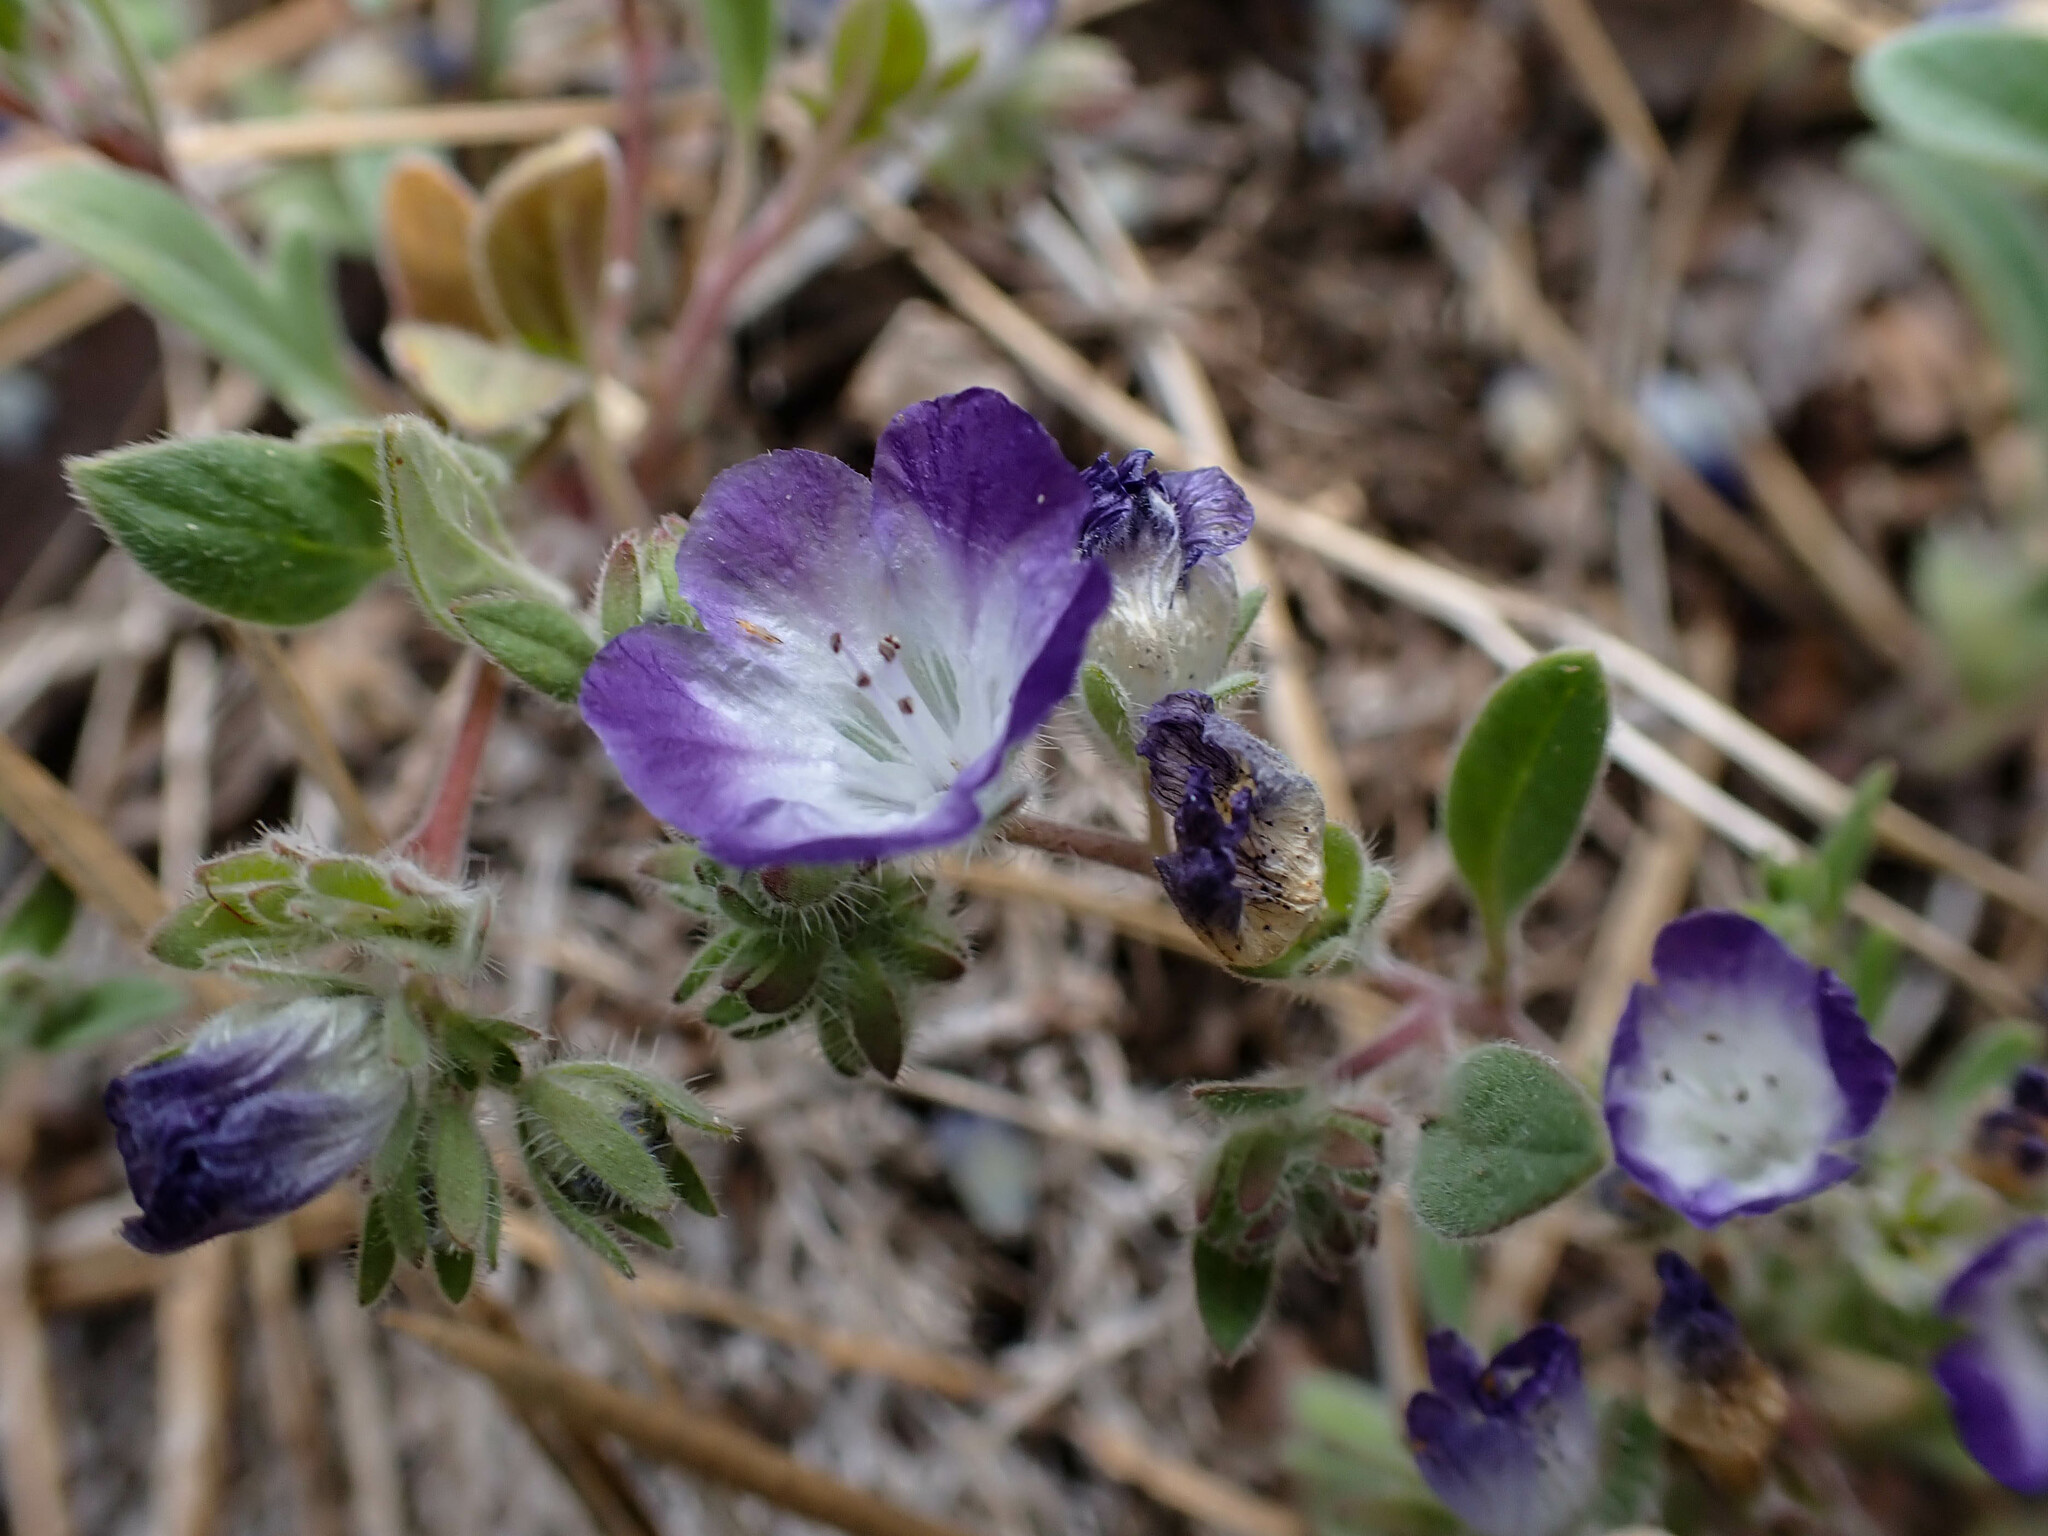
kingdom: Plantae
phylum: Tracheophyta
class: Magnoliopsida
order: Boraginales
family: Hydrophyllaceae
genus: Phacelia
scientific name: Phacelia davidsonii
